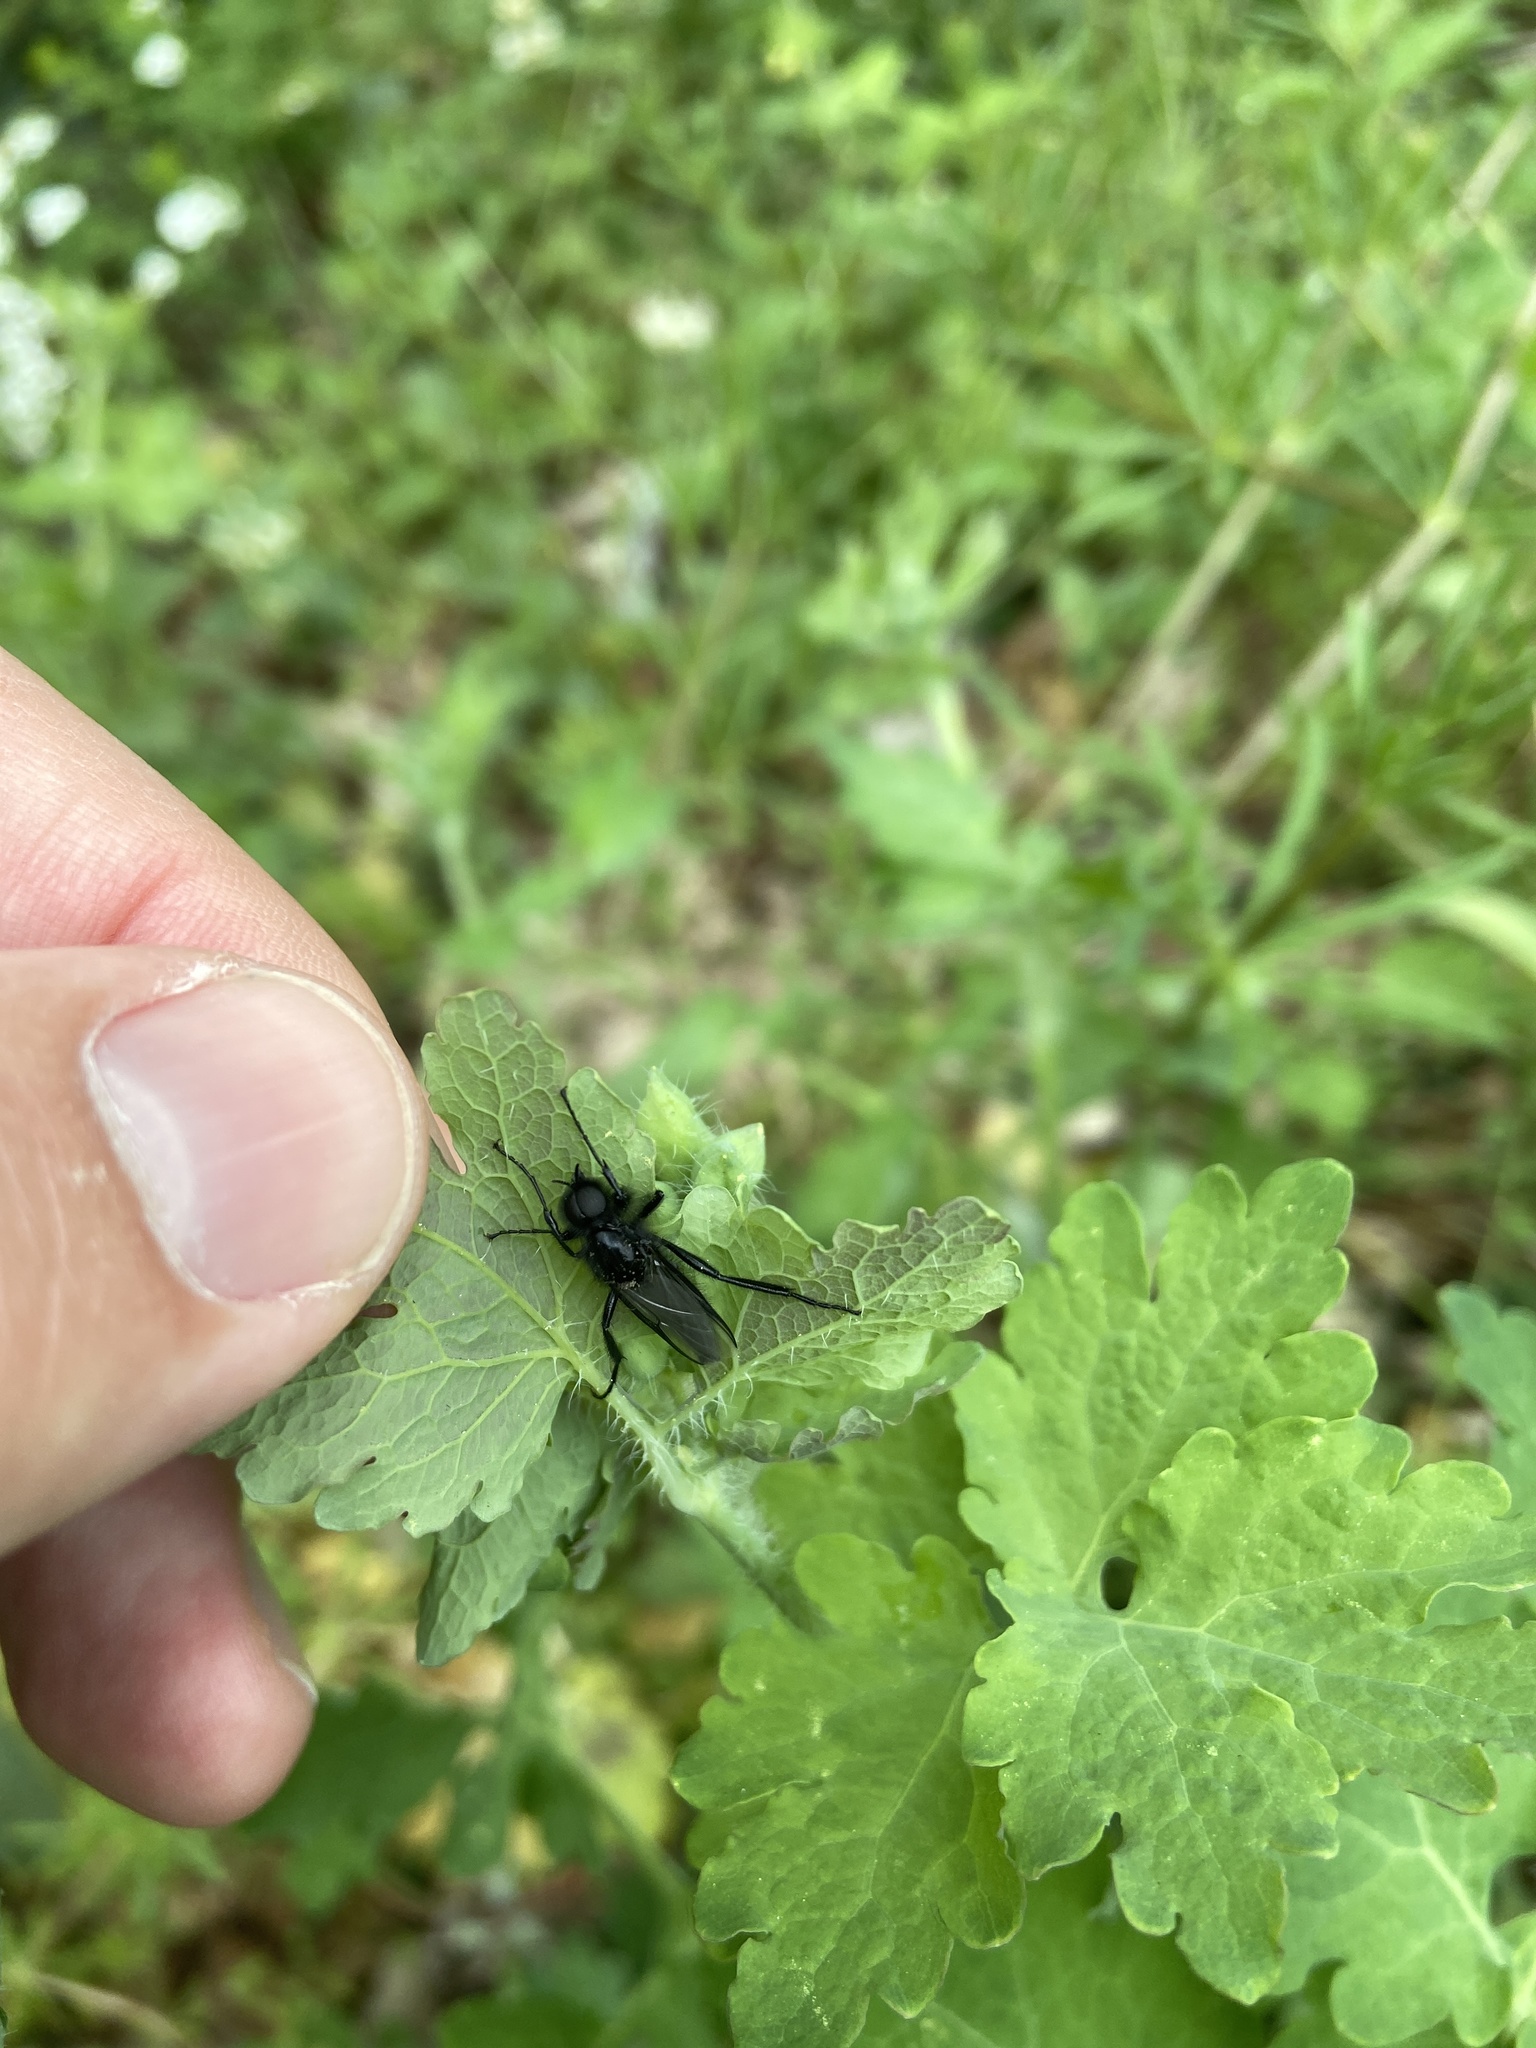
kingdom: Animalia
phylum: Arthropoda
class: Insecta
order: Diptera
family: Bibionidae
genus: Bibio
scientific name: Bibio marci
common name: St marks fly
